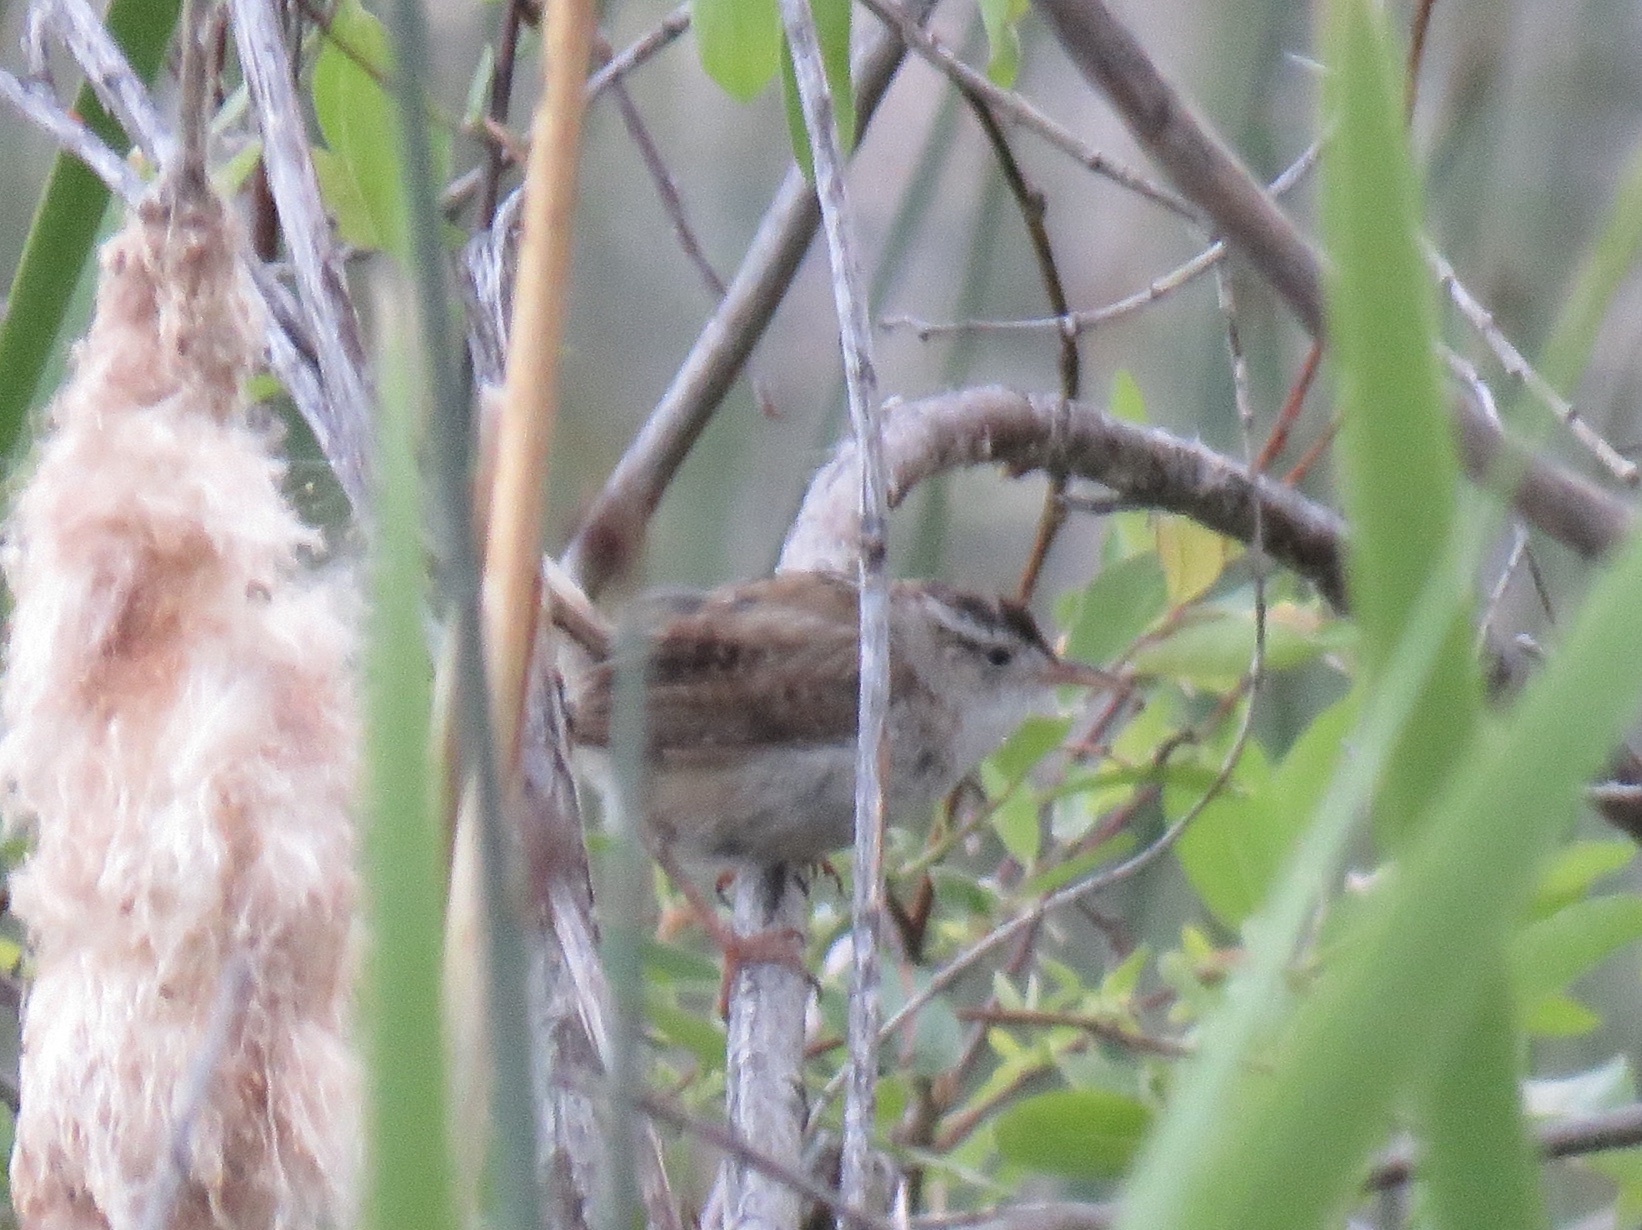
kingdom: Animalia
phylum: Chordata
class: Aves
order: Passeriformes
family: Troglodytidae
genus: Cistothorus
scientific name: Cistothorus palustris
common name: Marsh wren
